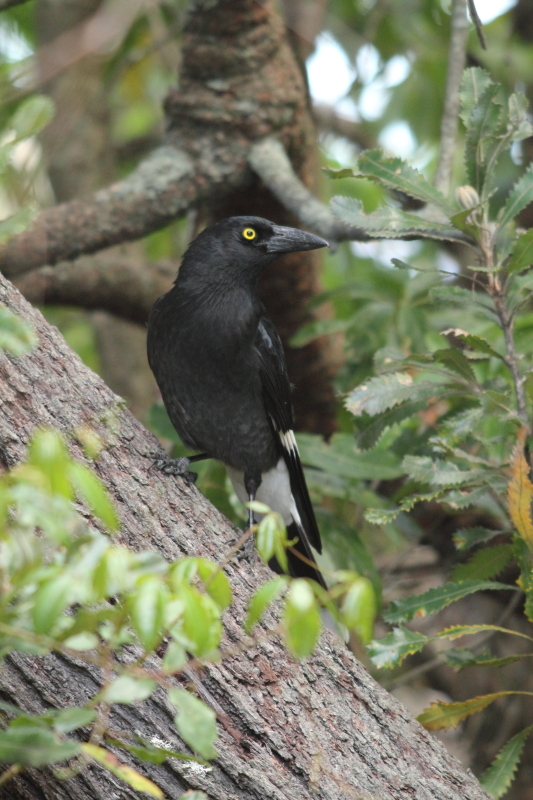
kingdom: Animalia
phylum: Chordata
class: Aves
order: Passeriformes
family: Cracticidae
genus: Strepera
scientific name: Strepera graculina
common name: Pied currawong
